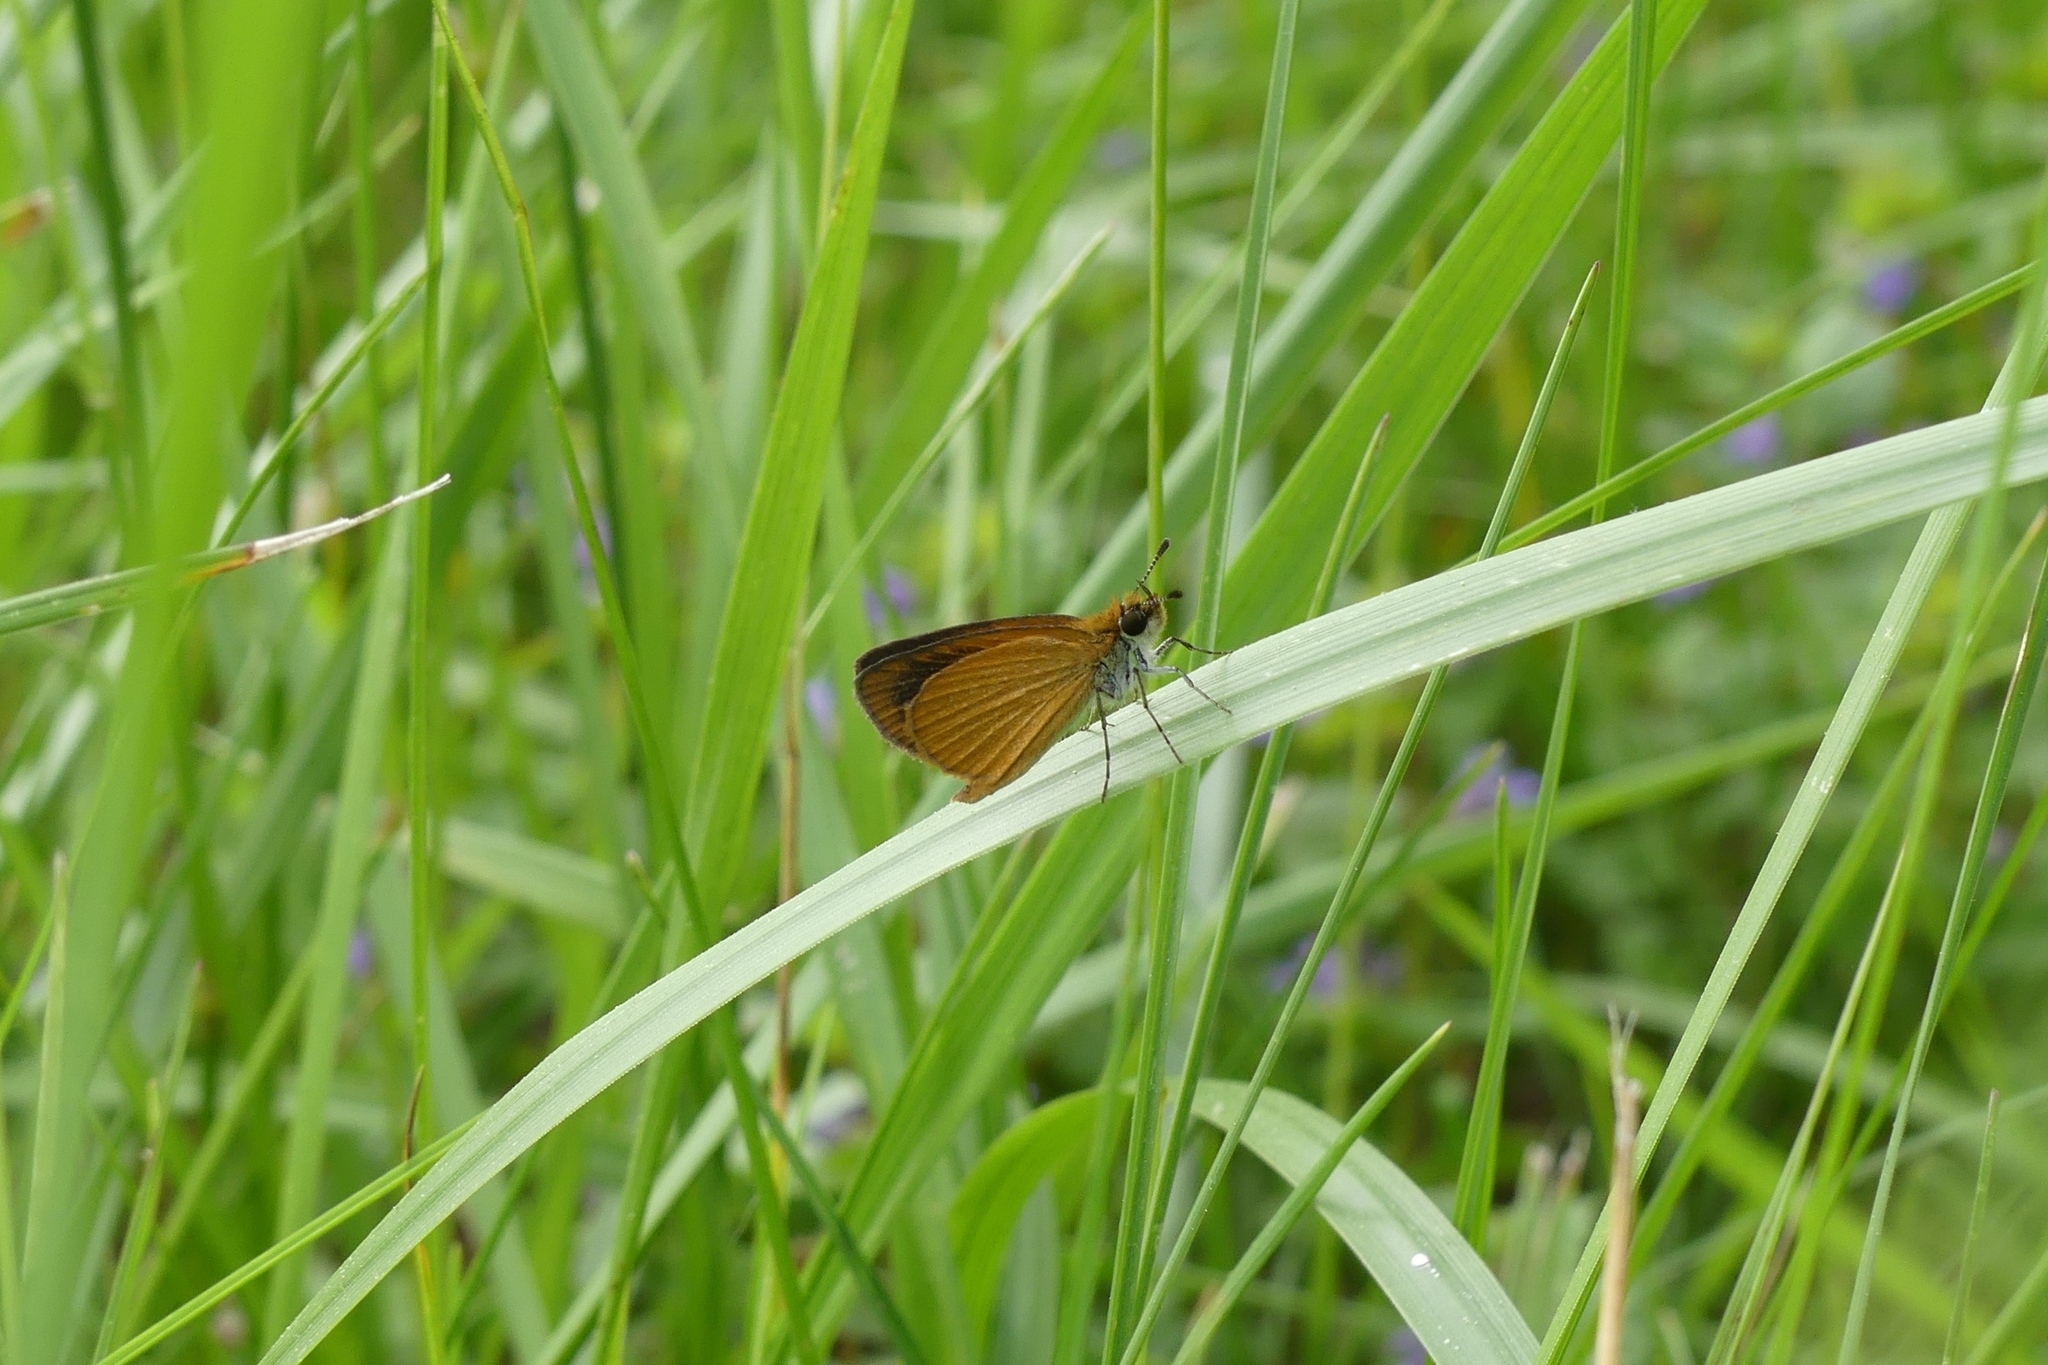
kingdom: Animalia
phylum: Arthropoda
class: Insecta
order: Lepidoptera
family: Hesperiidae
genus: Ancyloxypha
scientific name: Ancyloxypha numitor
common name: Least skipper
